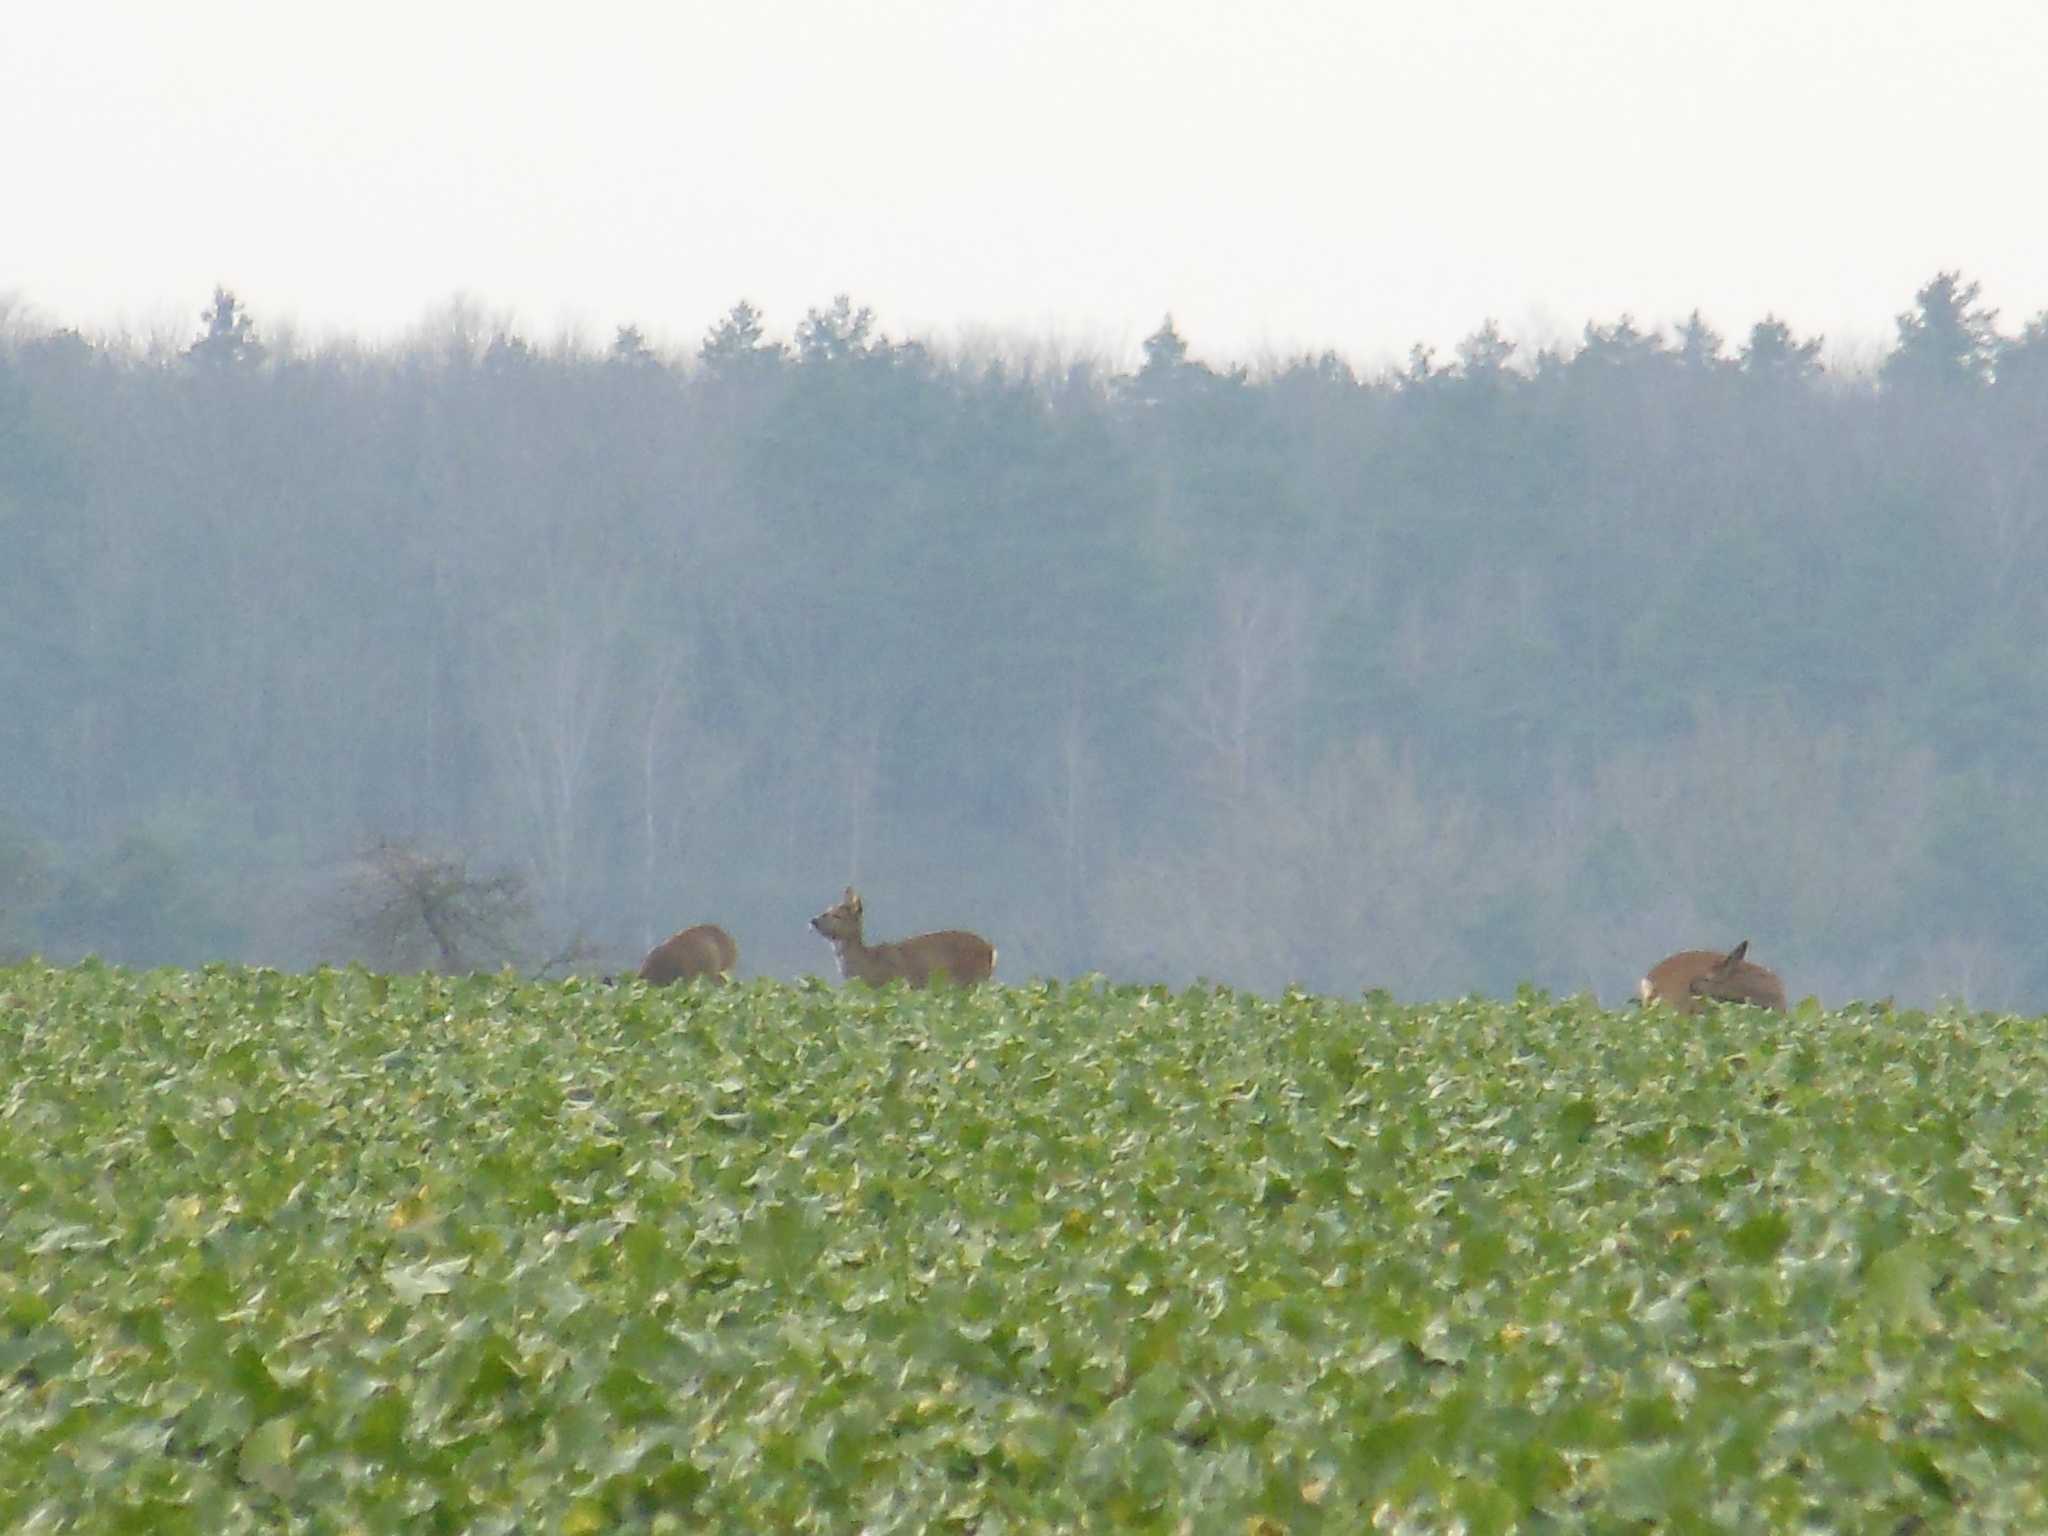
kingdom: Animalia
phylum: Chordata
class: Mammalia
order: Artiodactyla
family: Cervidae
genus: Capreolus
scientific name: Capreolus capreolus
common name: Western roe deer
